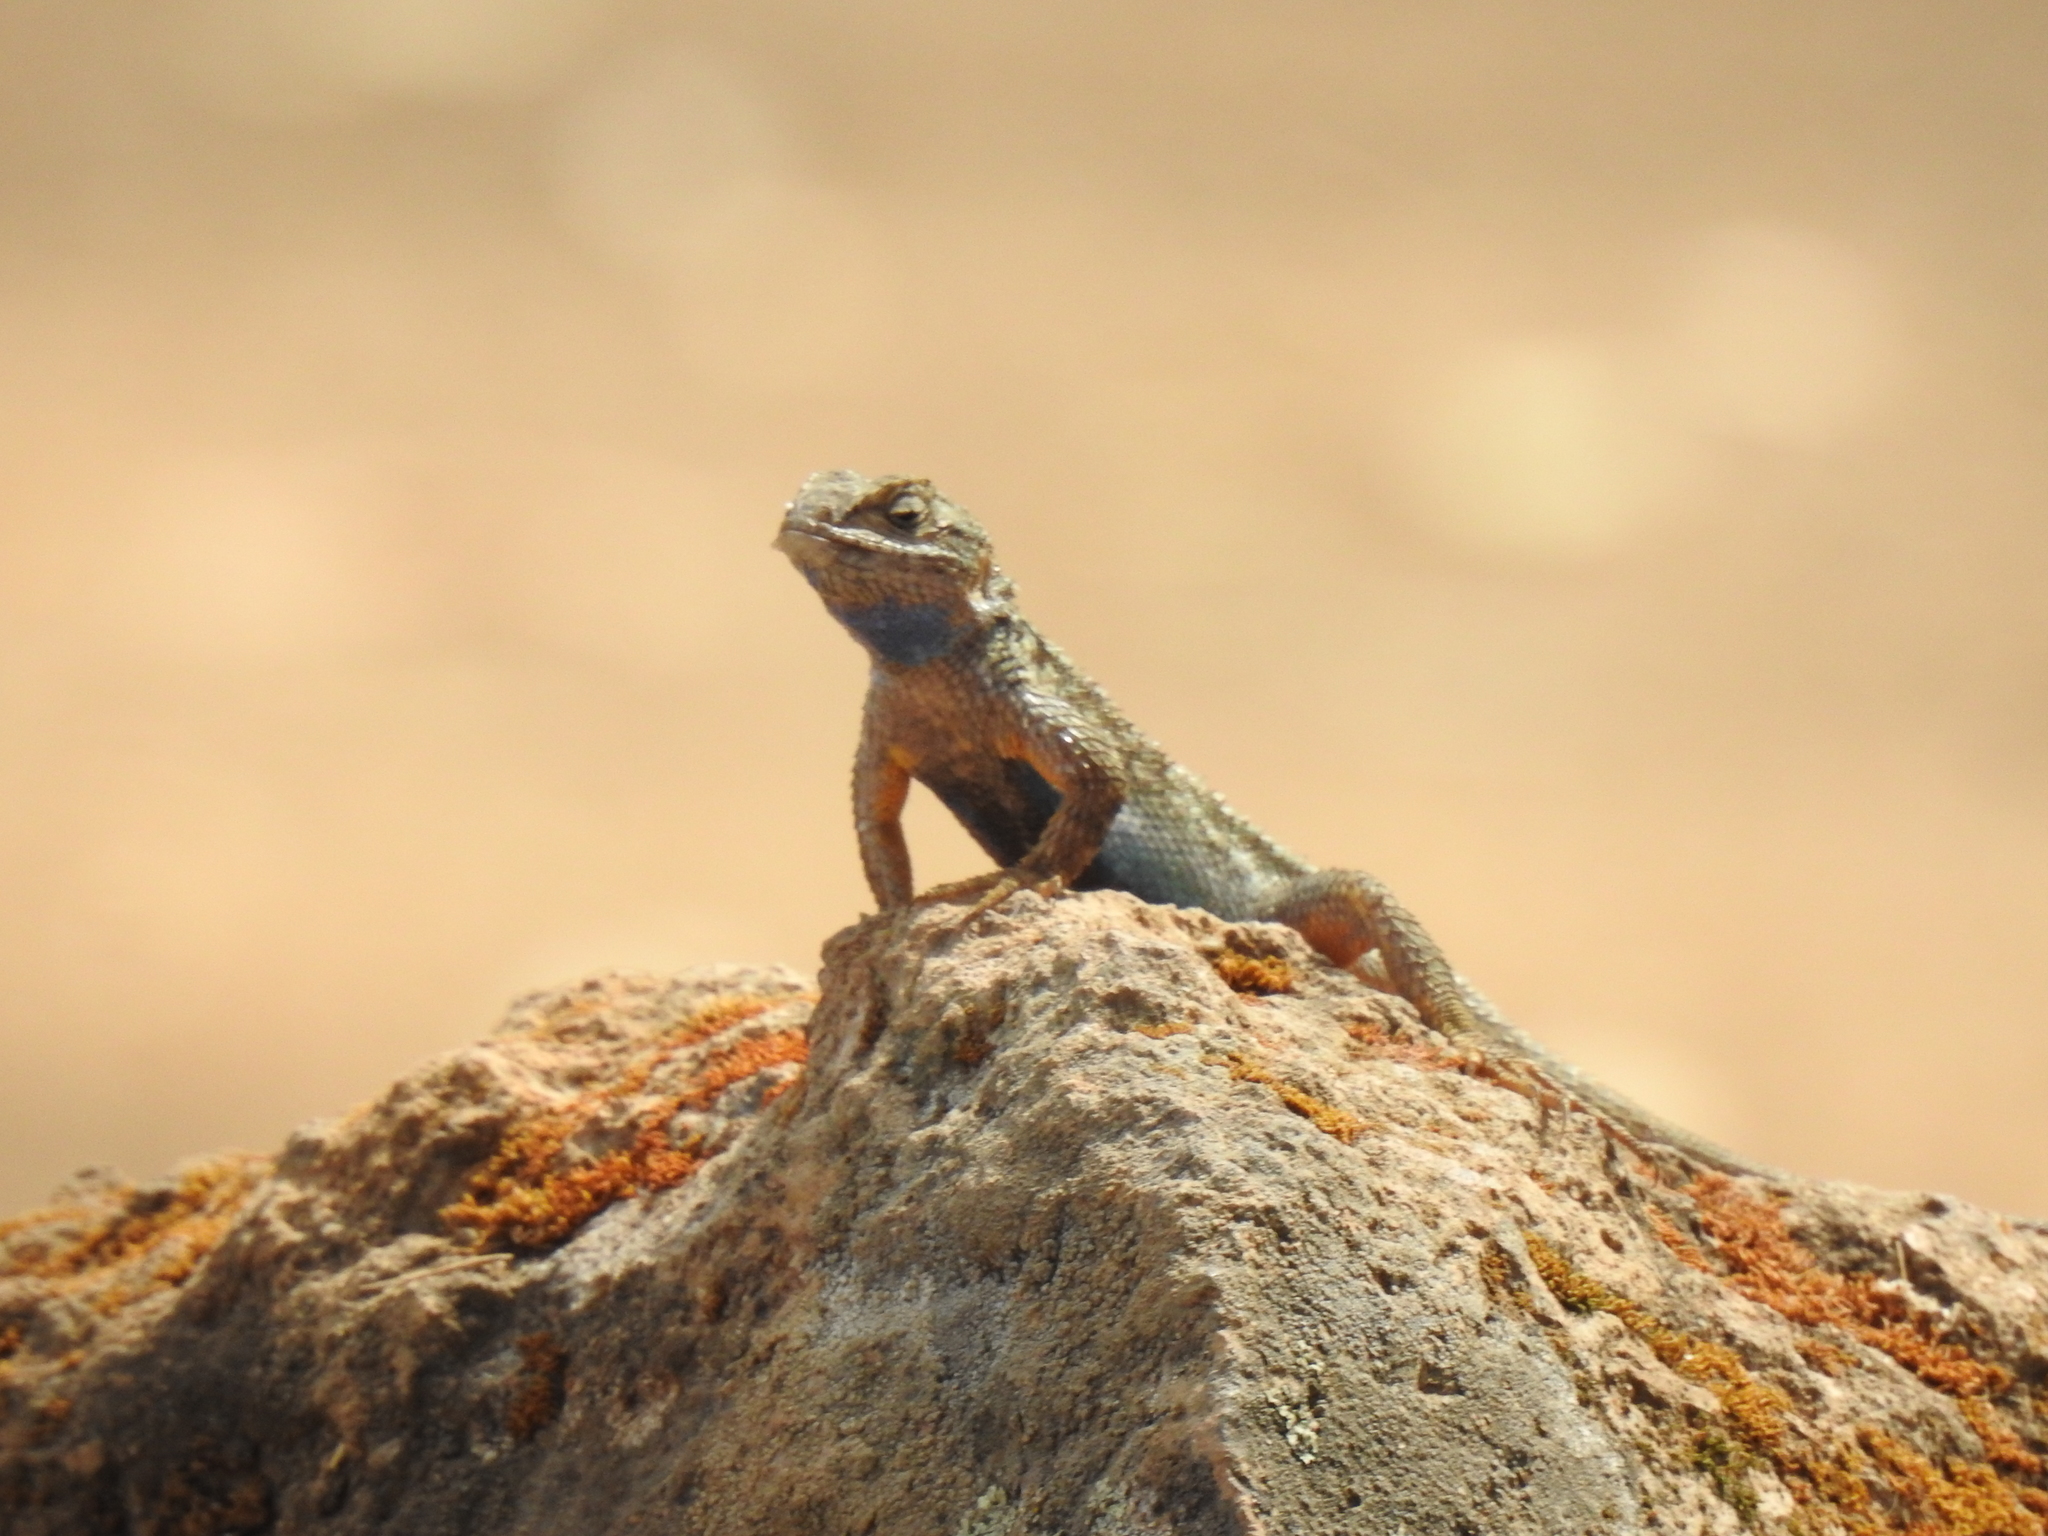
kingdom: Animalia
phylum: Chordata
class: Squamata
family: Phrynosomatidae
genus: Sceloporus
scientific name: Sceloporus occidentalis
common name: Western fence lizard
